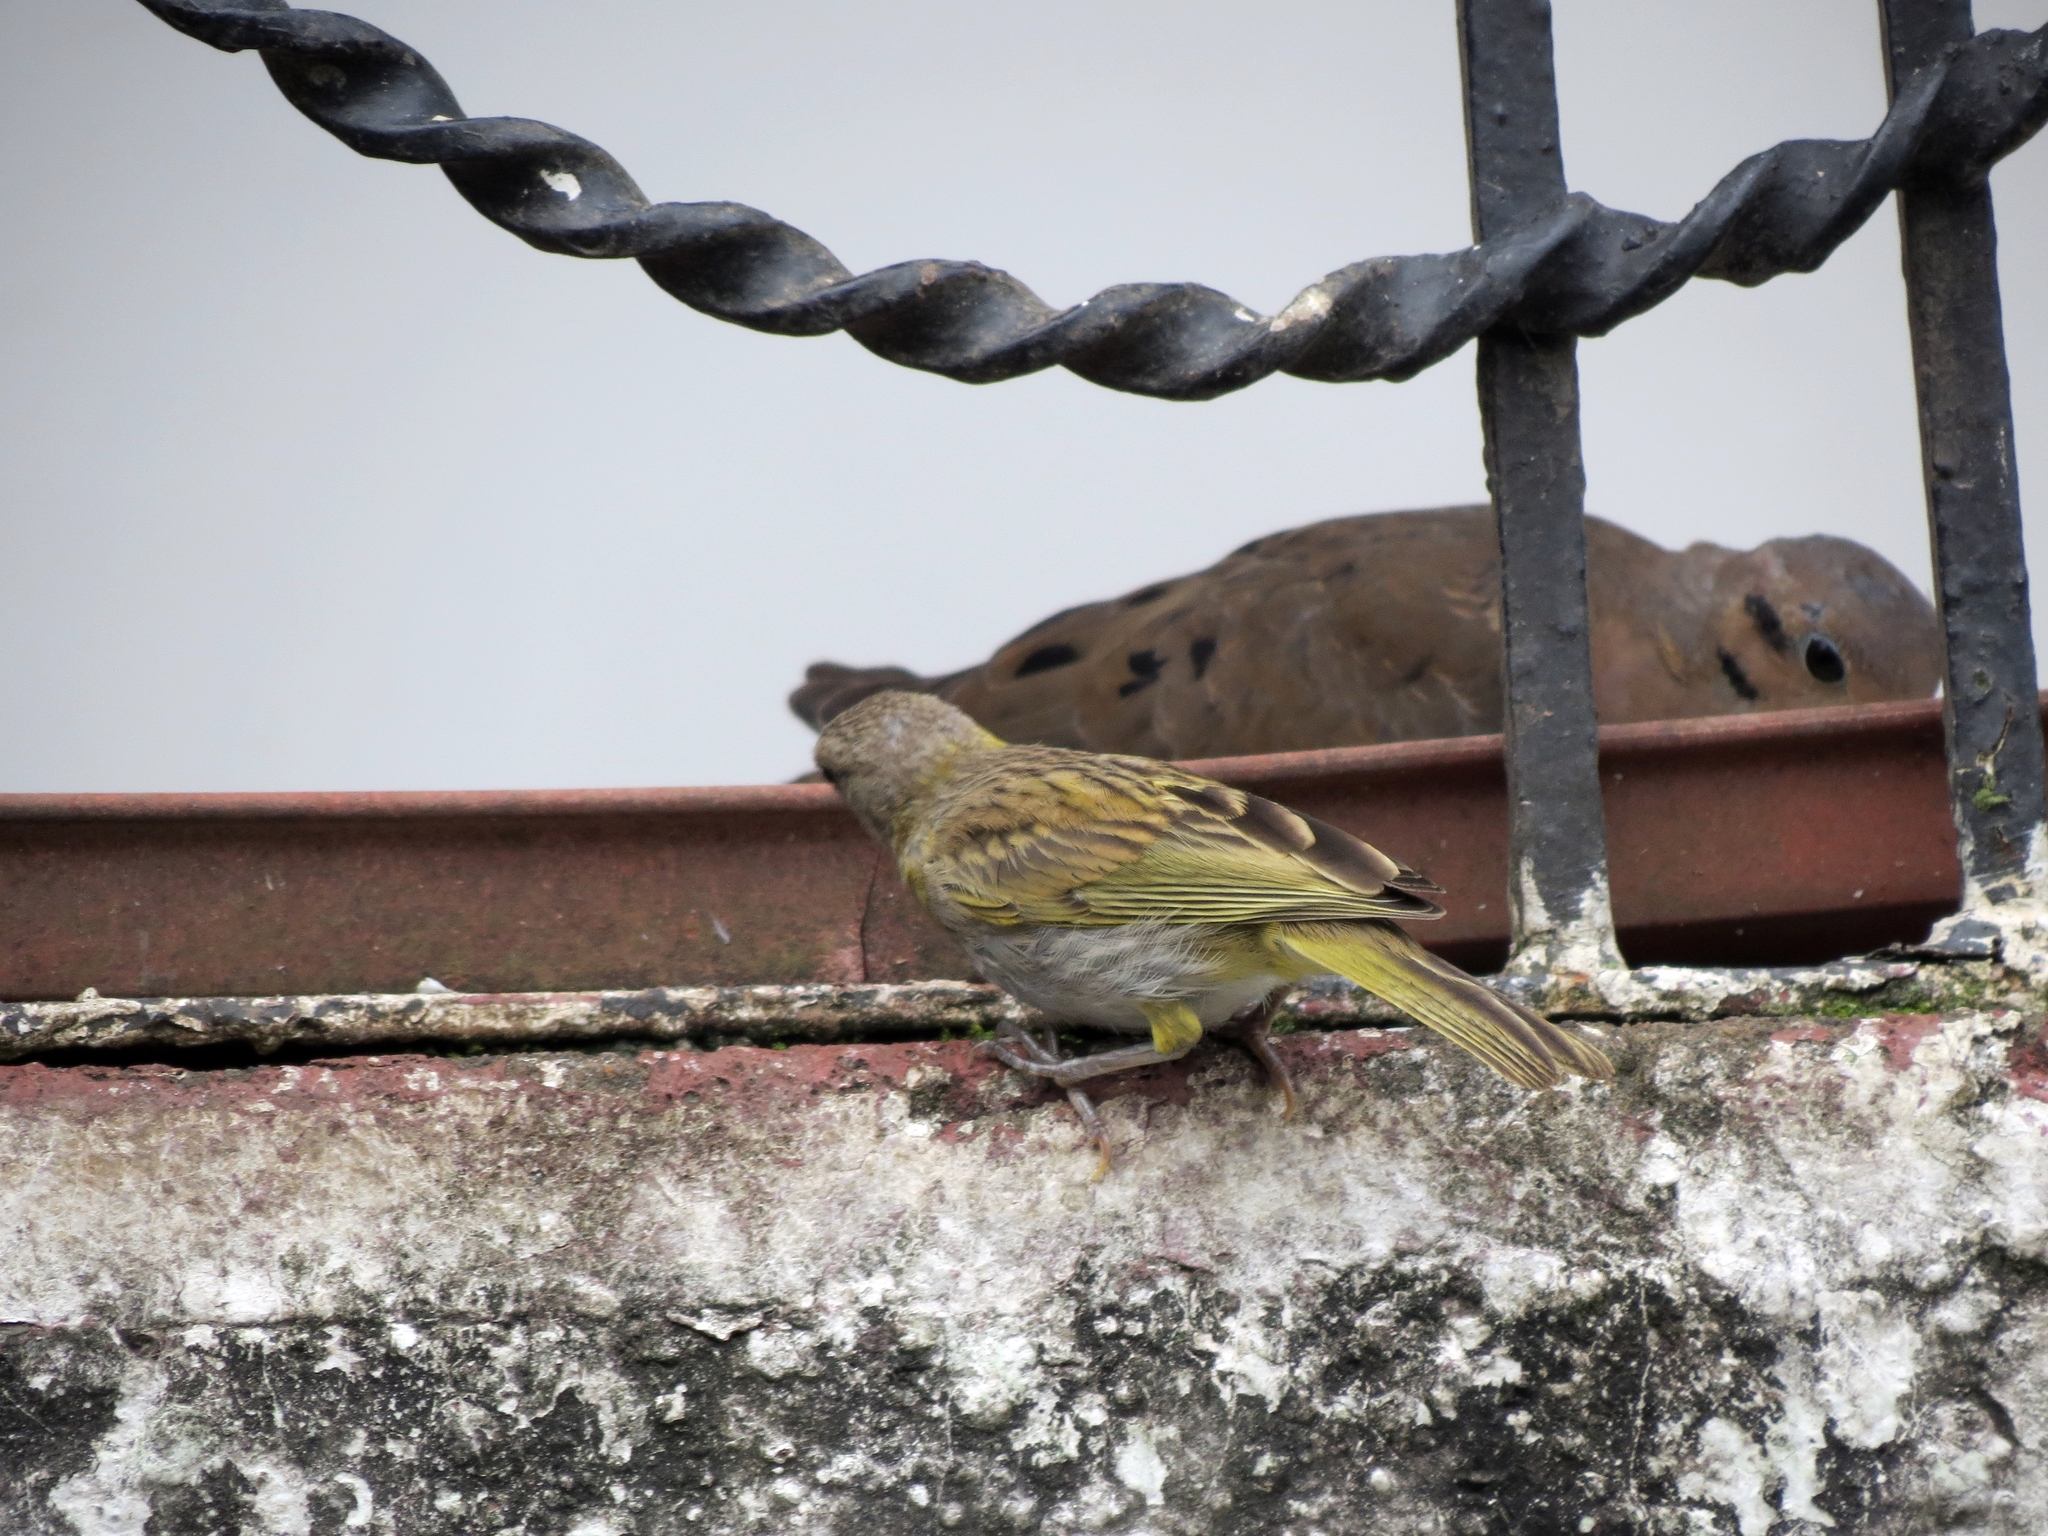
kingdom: Animalia
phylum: Chordata
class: Aves
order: Passeriformes
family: Thraupidae
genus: Sicalis
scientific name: Sicalis flaveola
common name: Saffron finch
